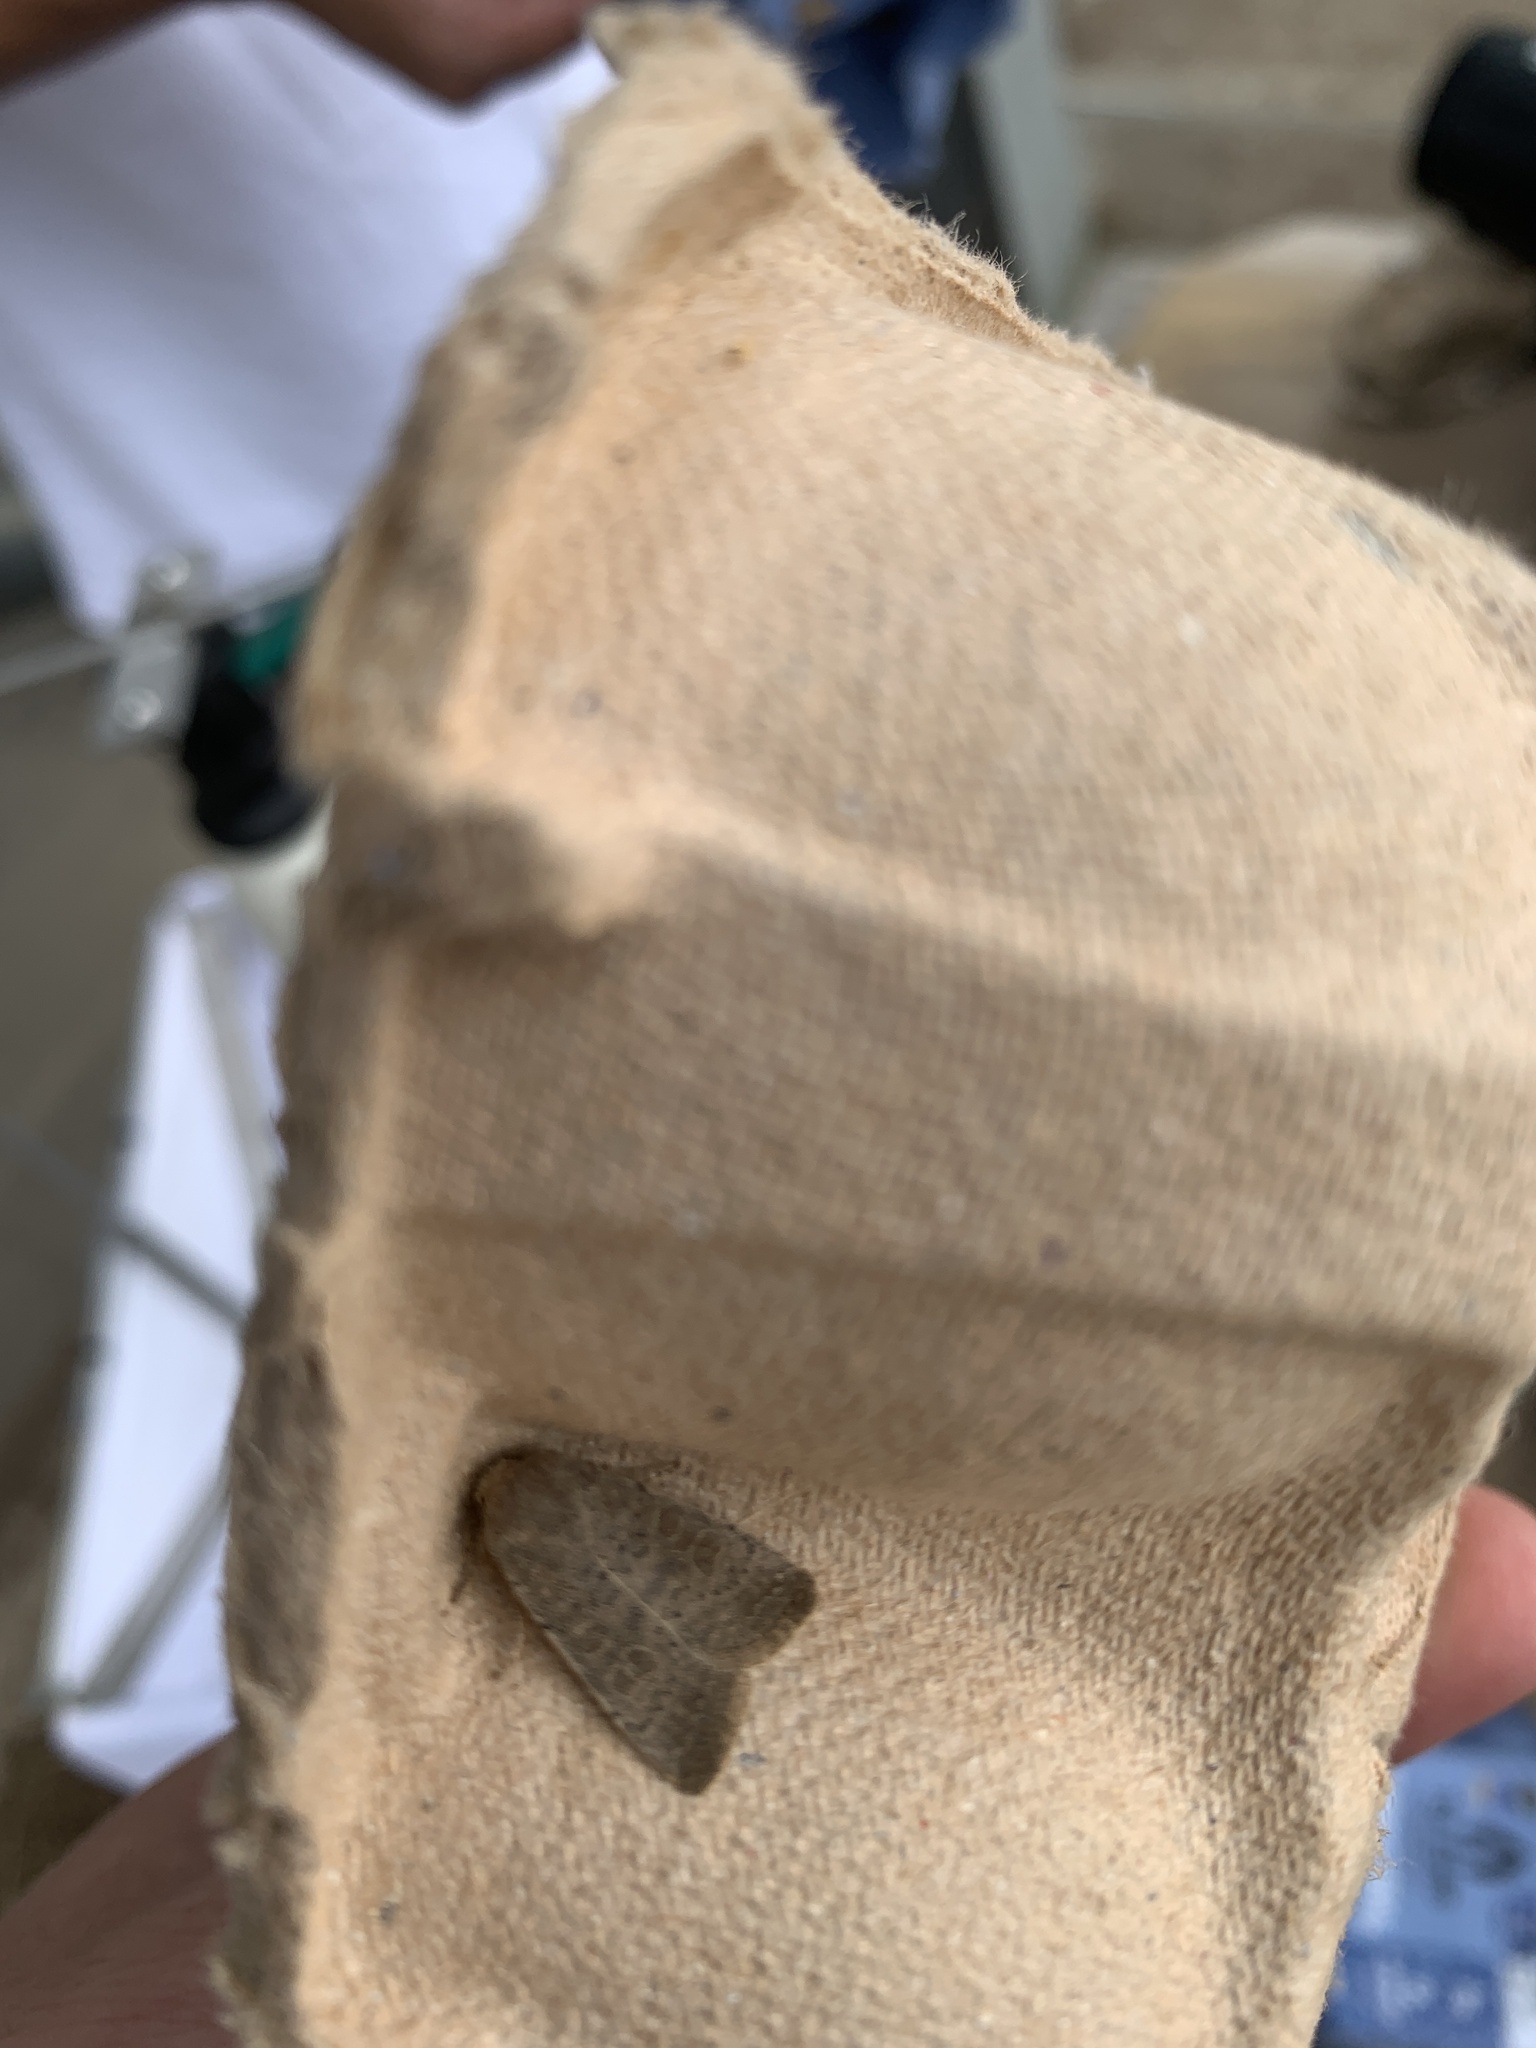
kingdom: Animalia
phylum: Arthropoda
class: Insecta
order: Lepidoptera
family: Noctuidae
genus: Hoplodrina
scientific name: Hoplodrina ambigua
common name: Vine's rustic
